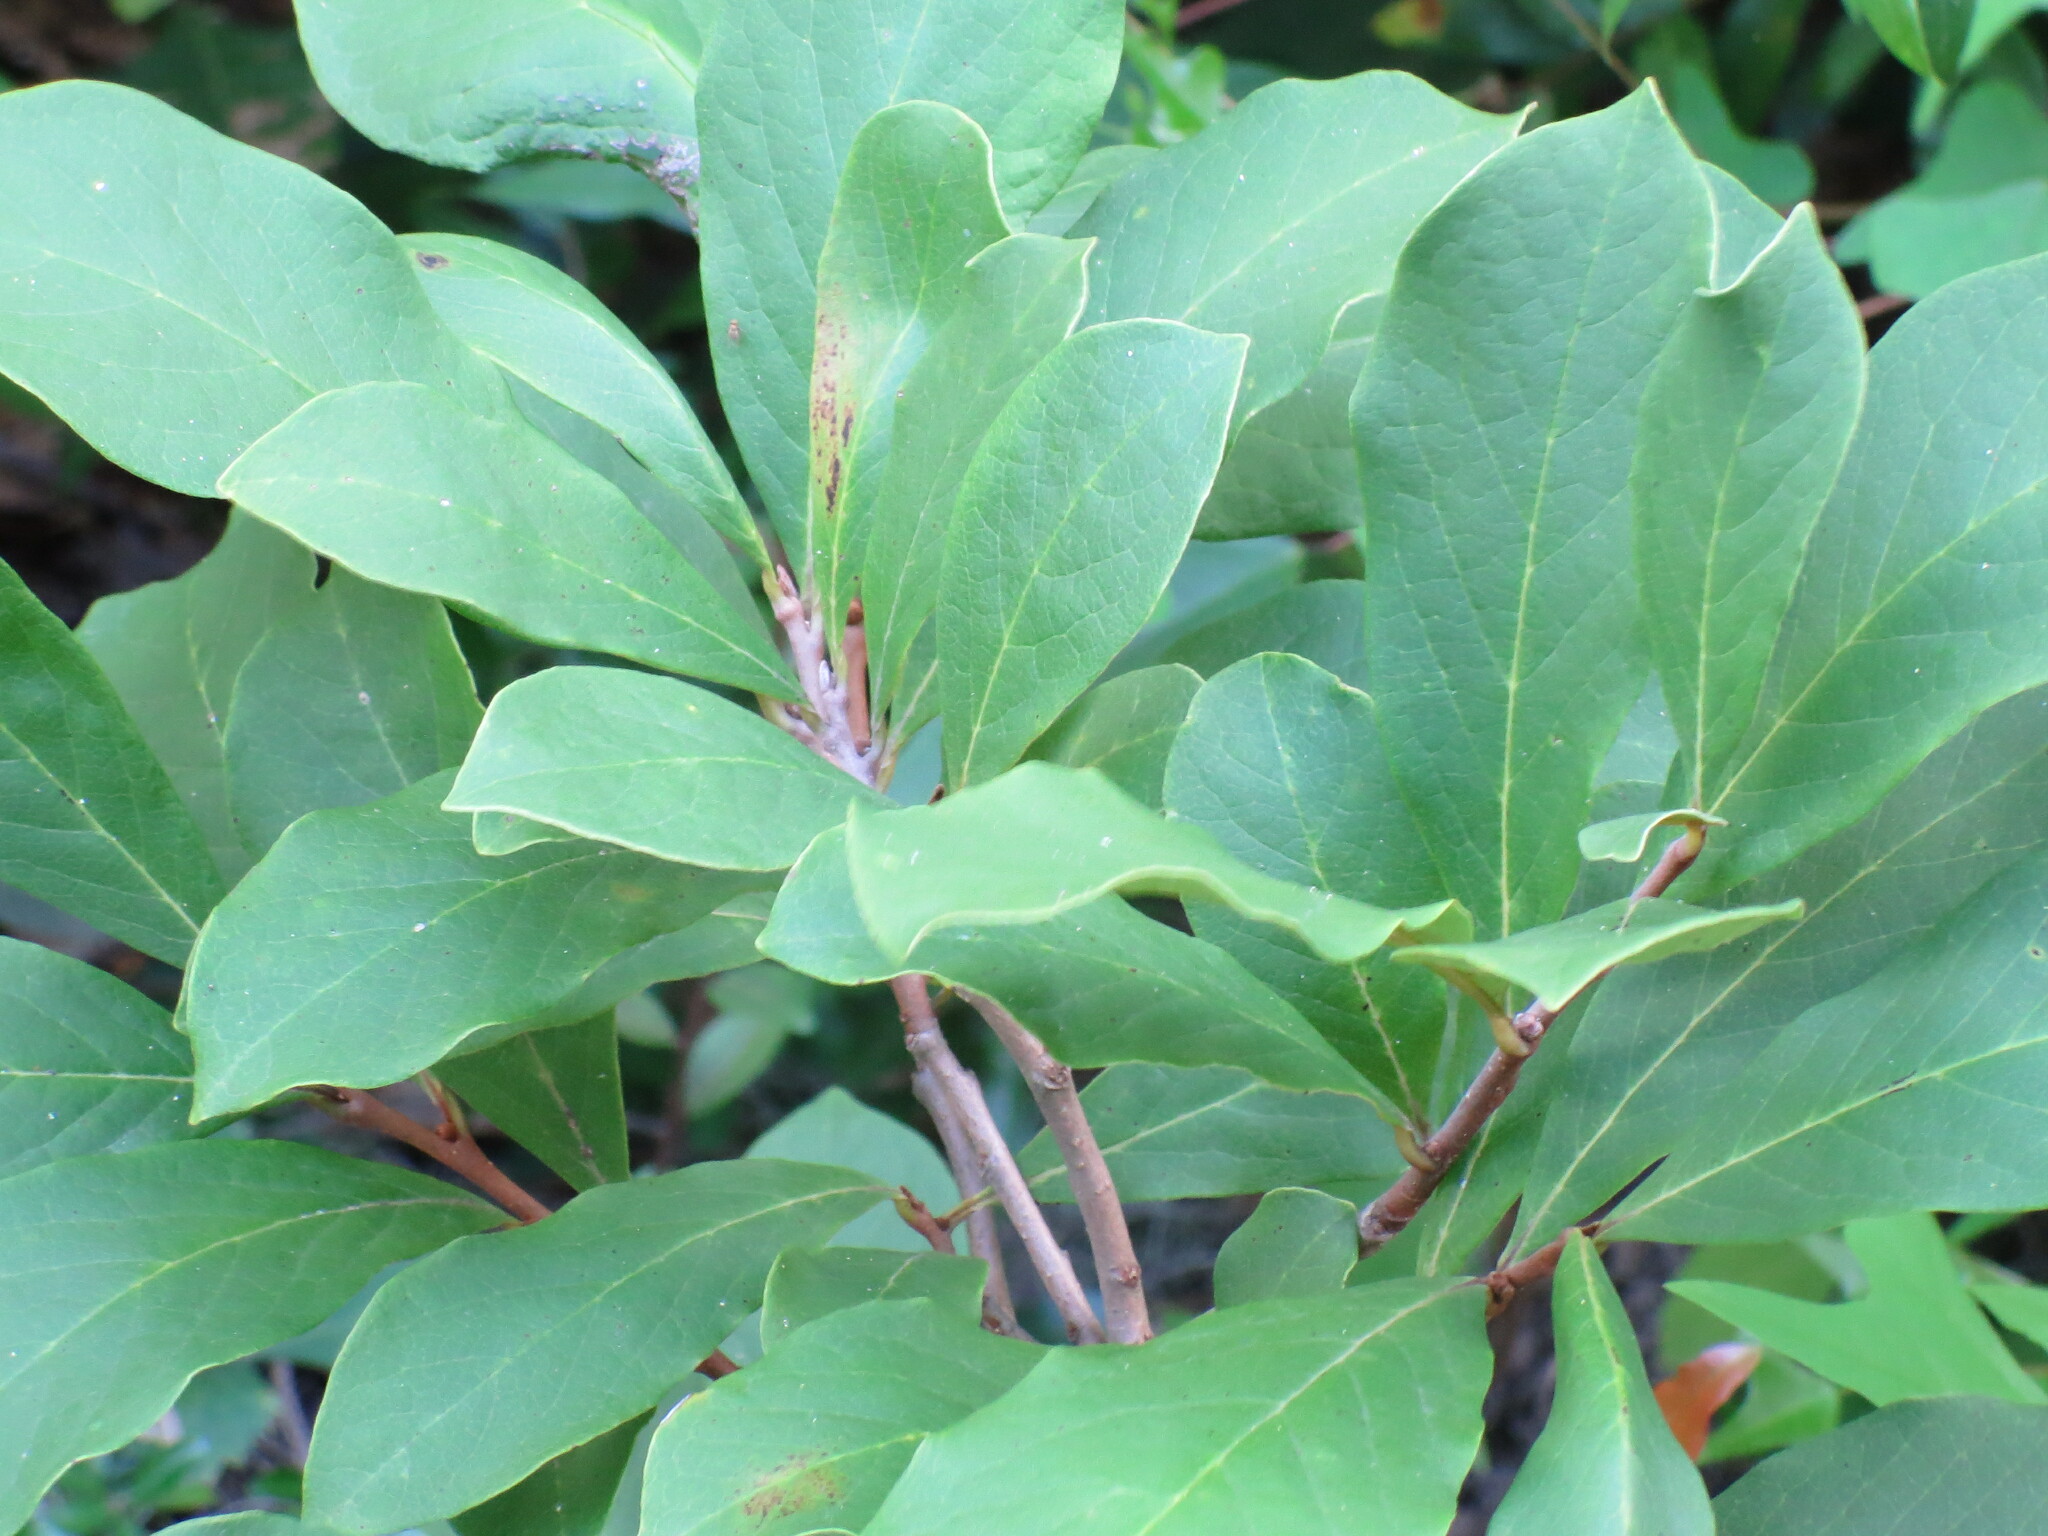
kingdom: Plantae
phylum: Tracheophyta
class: Magnoliopsida
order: Magnoliales
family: Annonaceae
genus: Asimina
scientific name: Asimina parviflora
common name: Dwarf pawpaw
